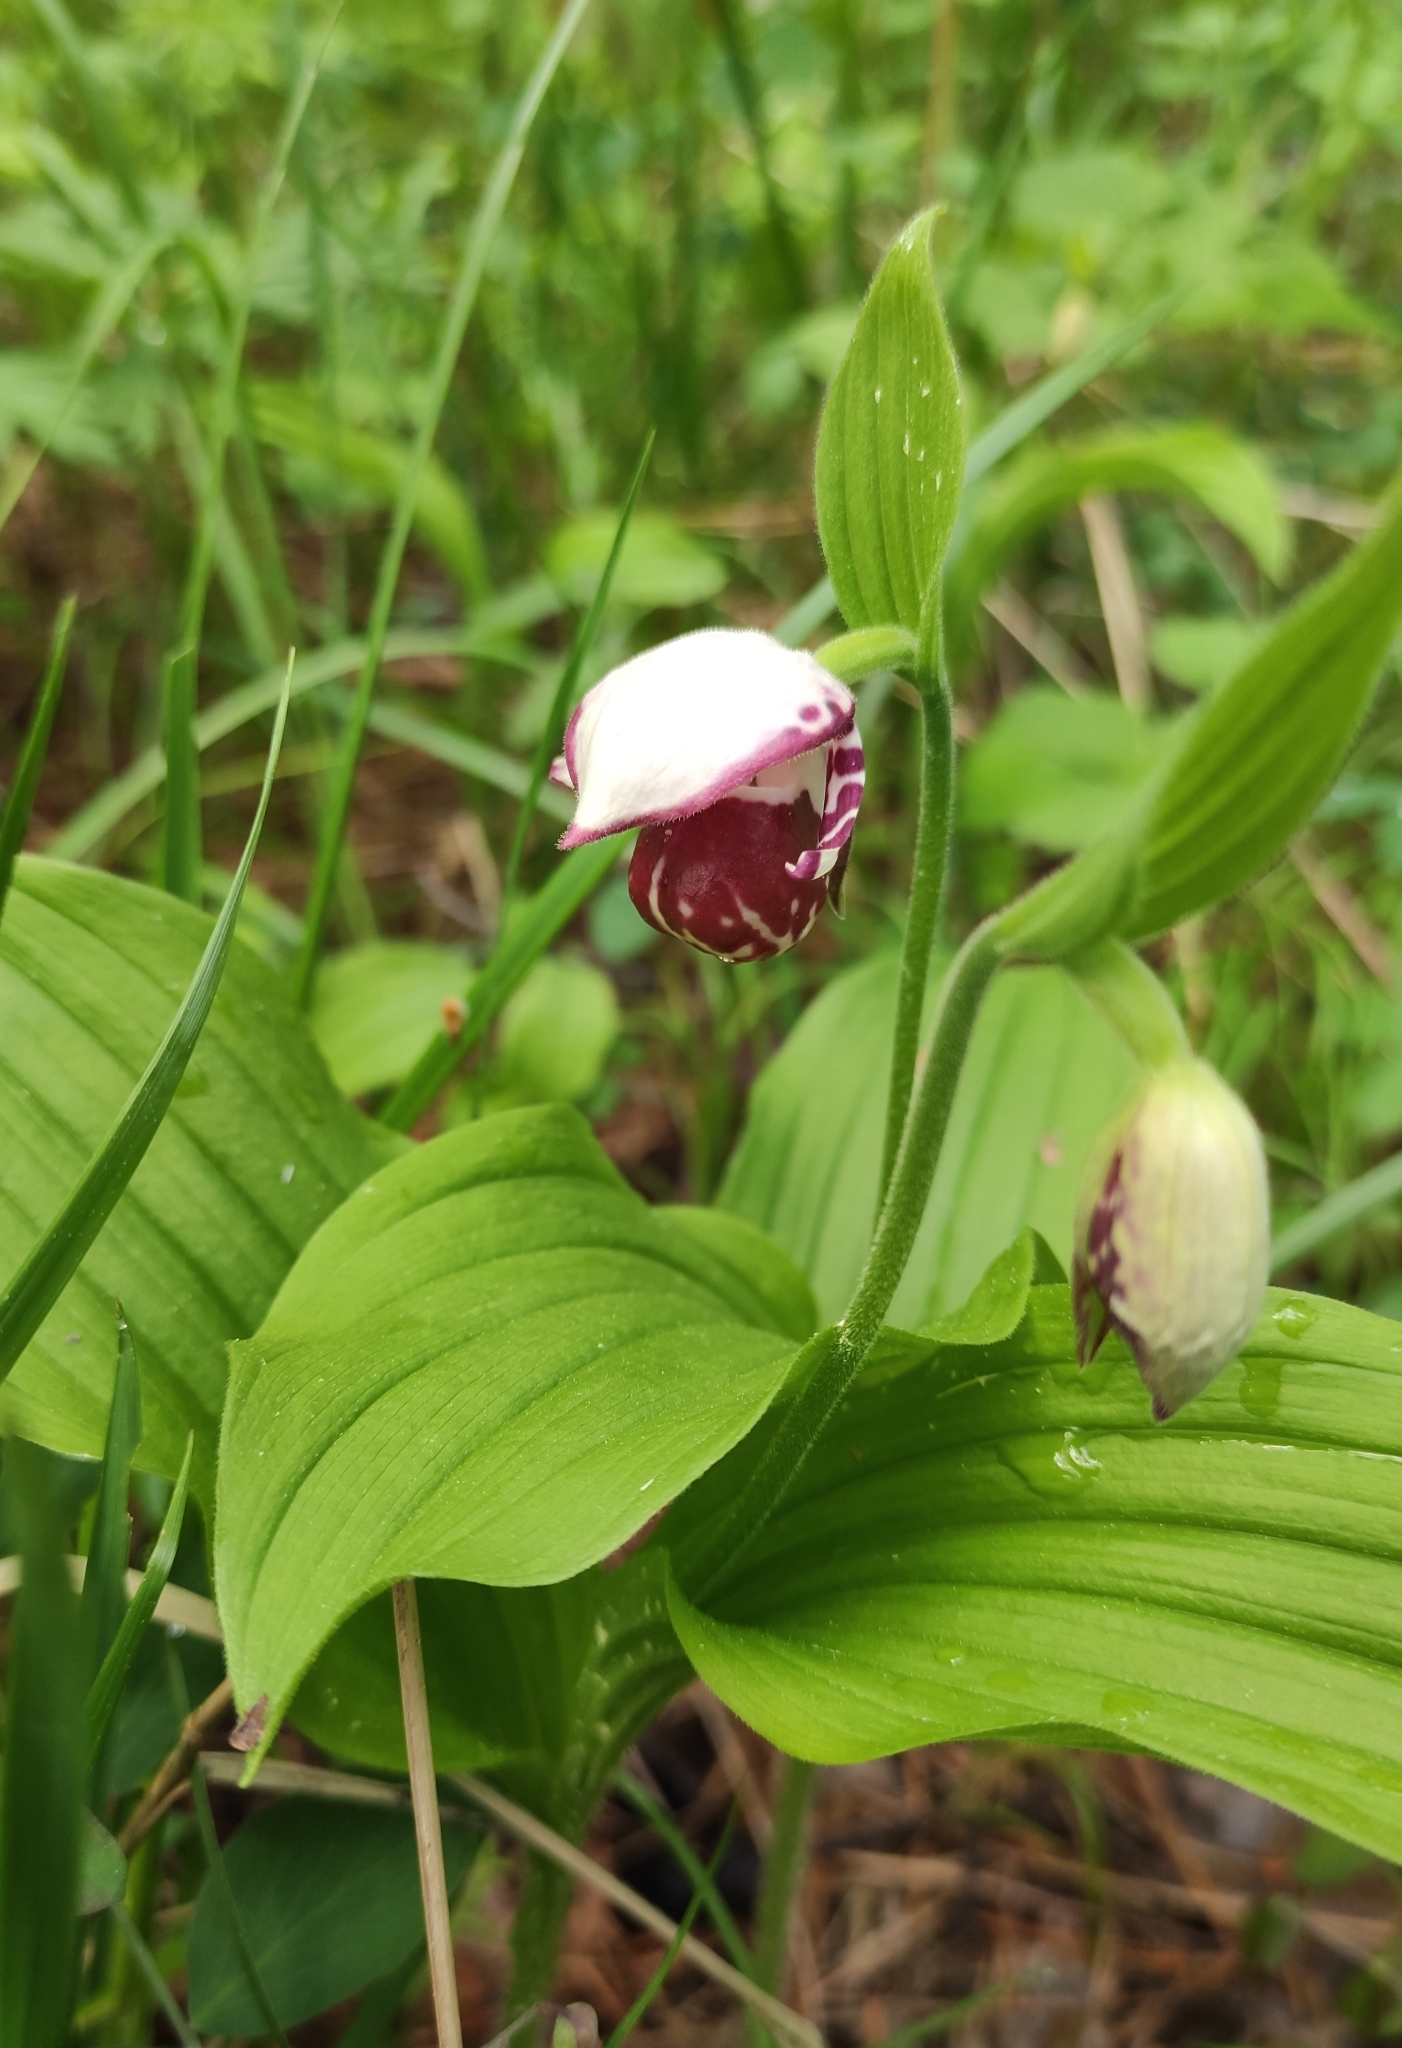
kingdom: Plantae
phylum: Tracheophyta
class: Liliopsida
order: Asparagales
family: Orchidaceae
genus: Cypripedium
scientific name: Cypripedium guttatum
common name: Pink lady slipper
